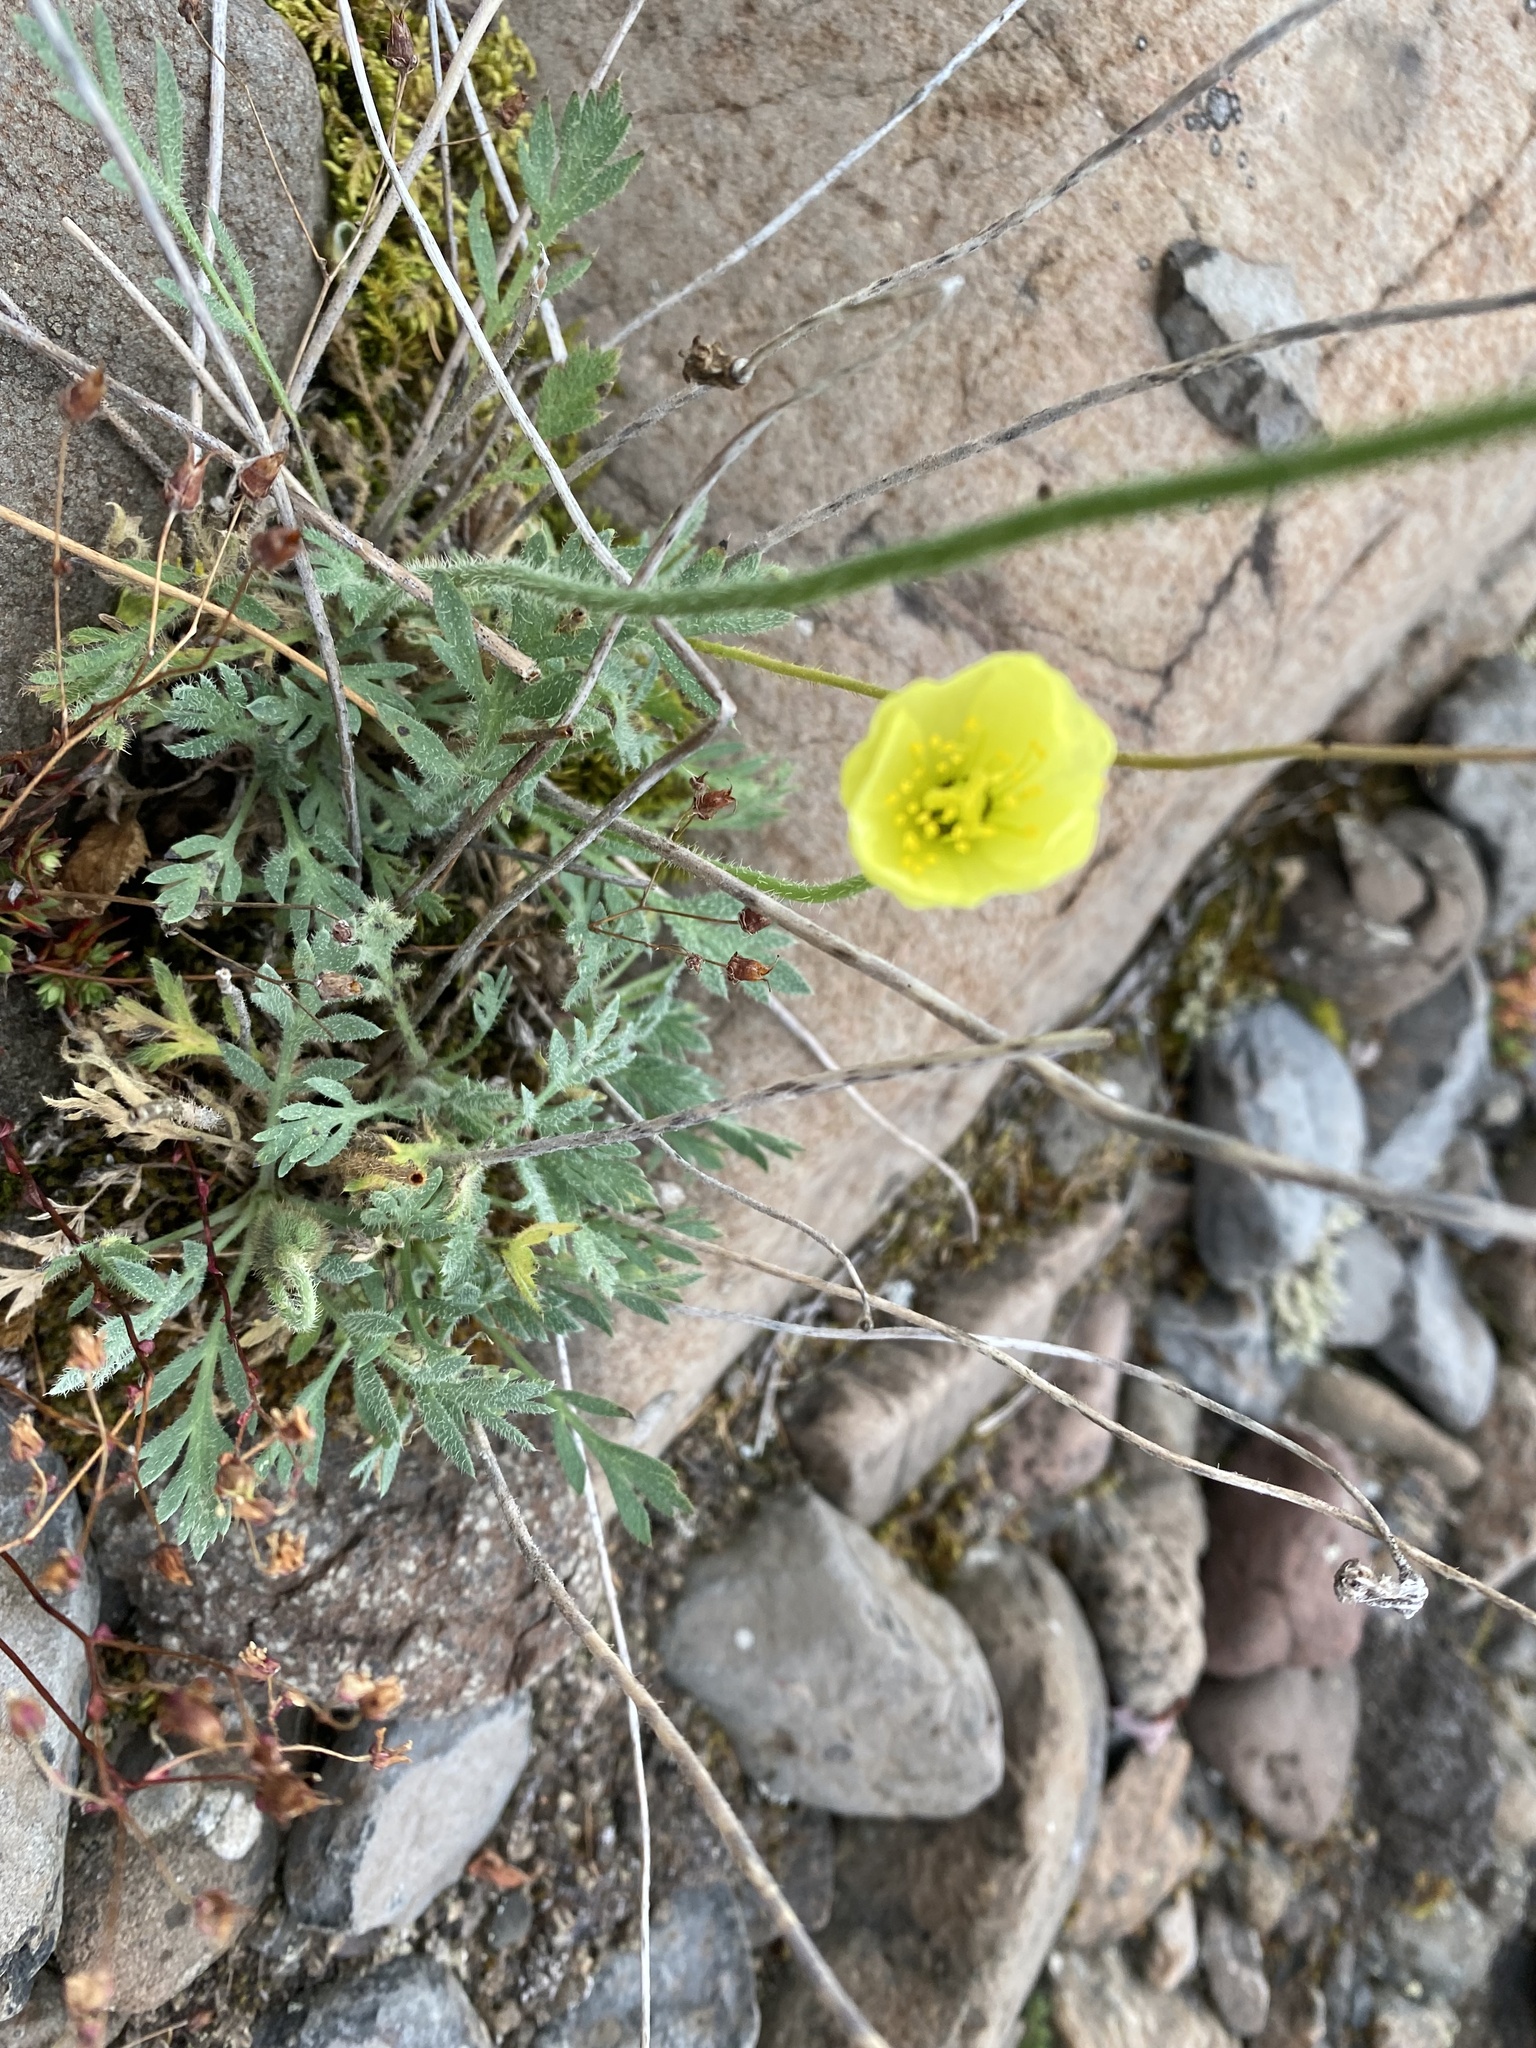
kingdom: Plantae
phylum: Tracheophyta
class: Magnoliopsida
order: Ranunculales
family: Papaveraceae
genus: Papaver
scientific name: Papaver pulvinatum
